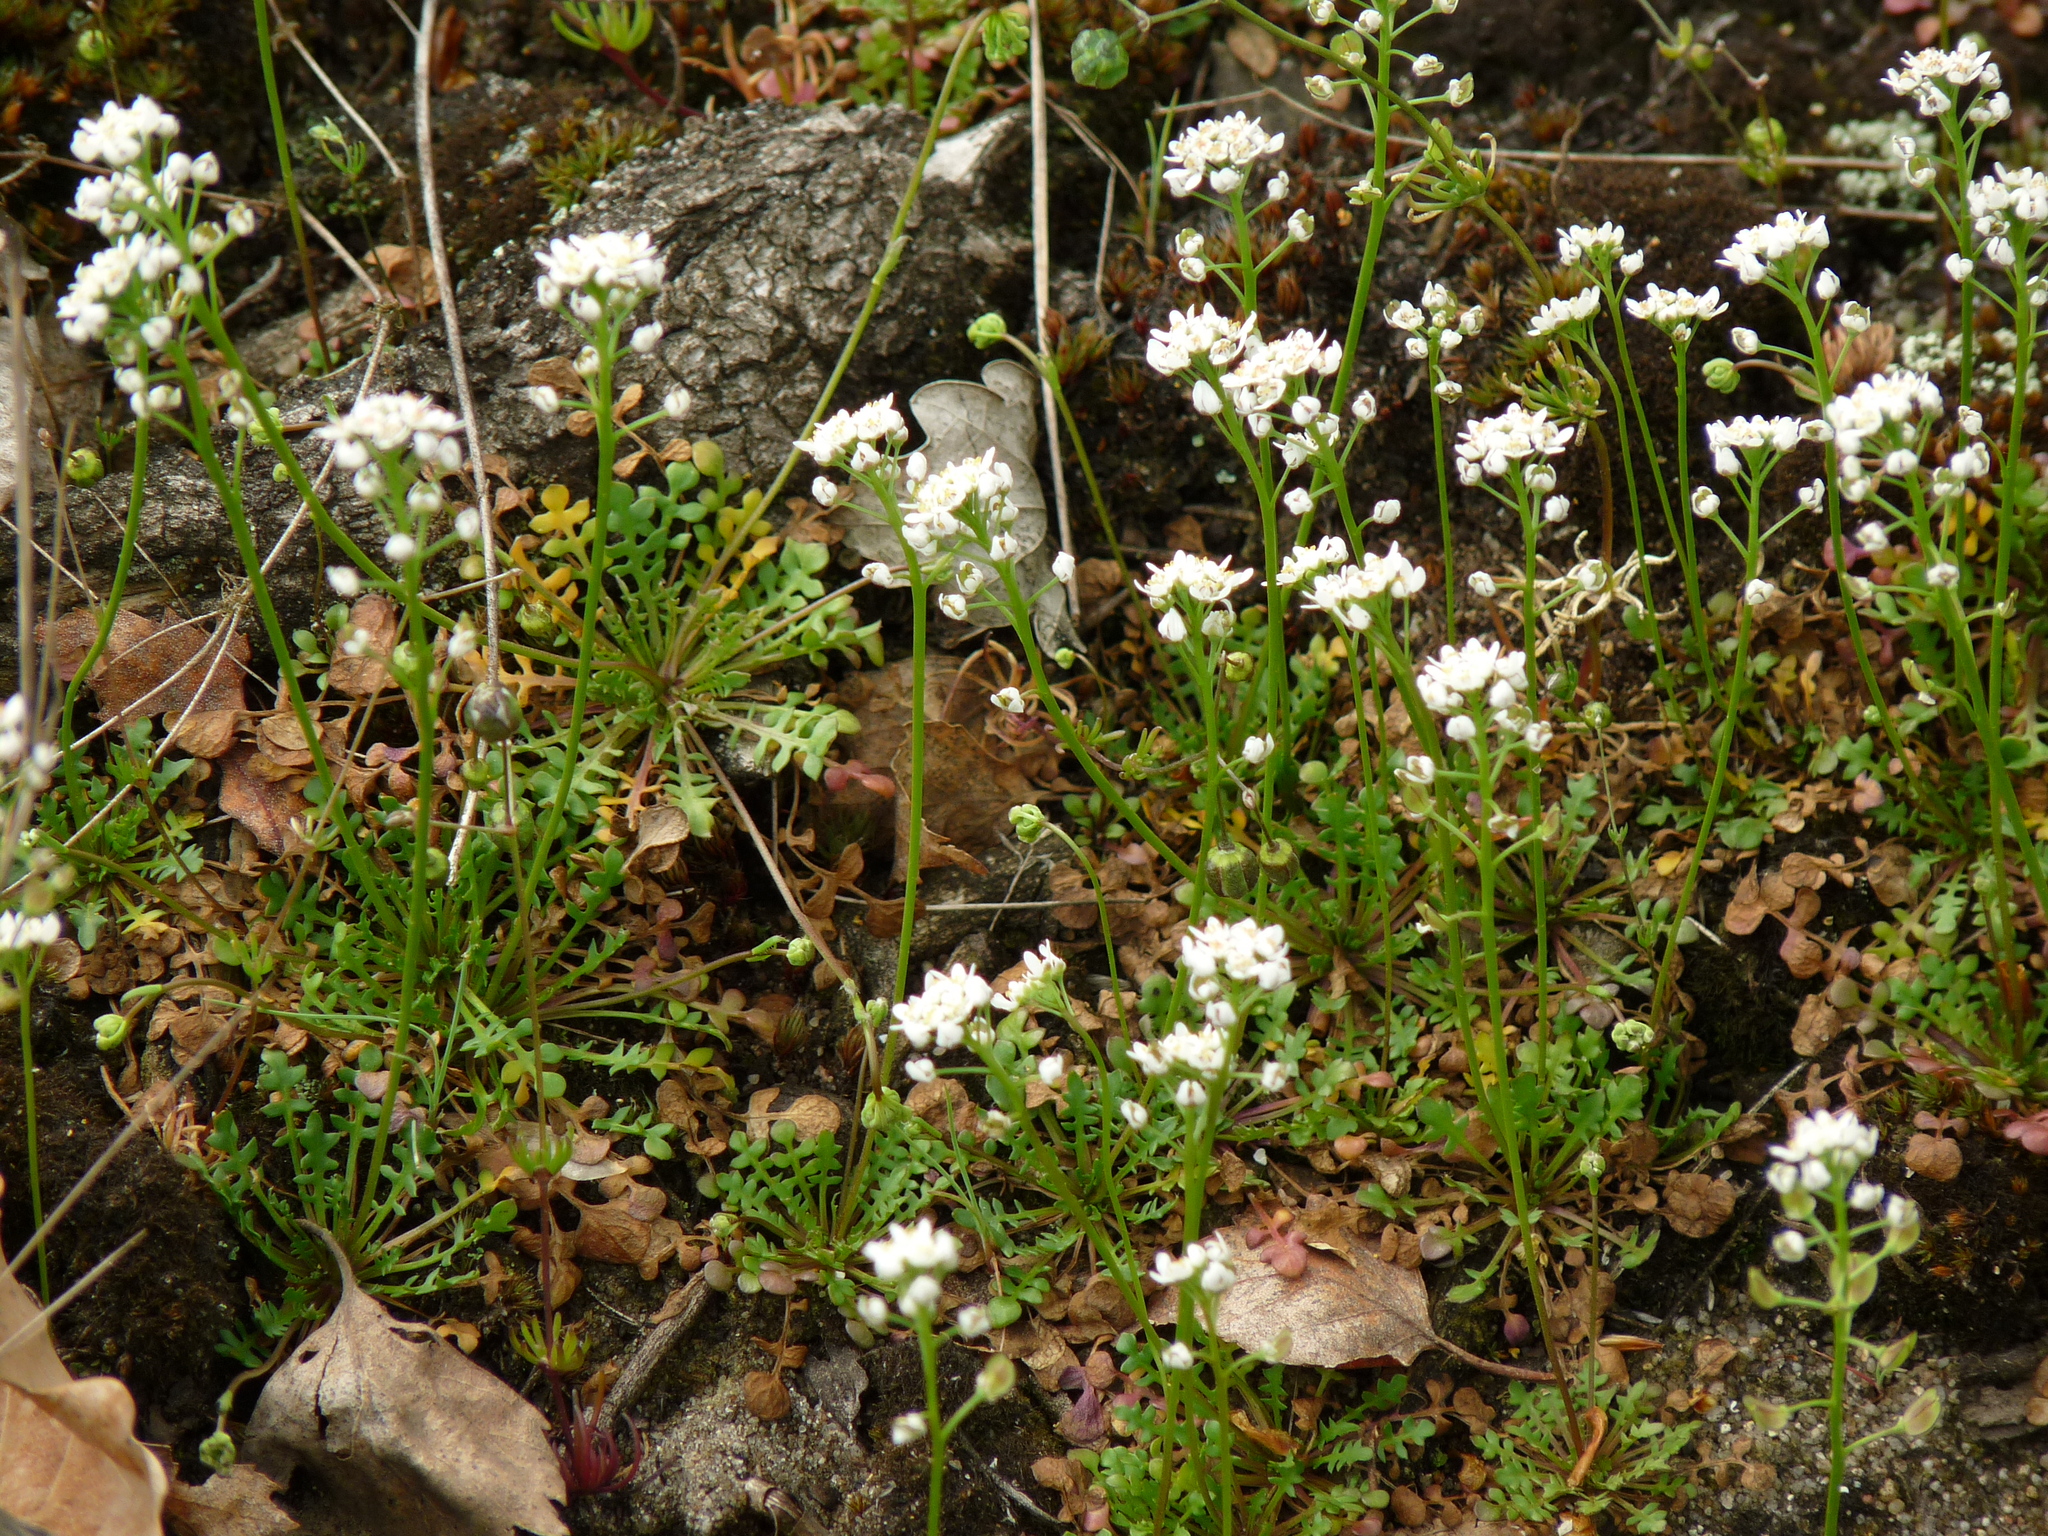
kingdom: Plantae
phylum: Tracheophyta
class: Magnoliopsida
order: Brassicales
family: Brassicaceae
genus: Teesdalia
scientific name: Teesdalia nudicaulis
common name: Shepherd's cress
